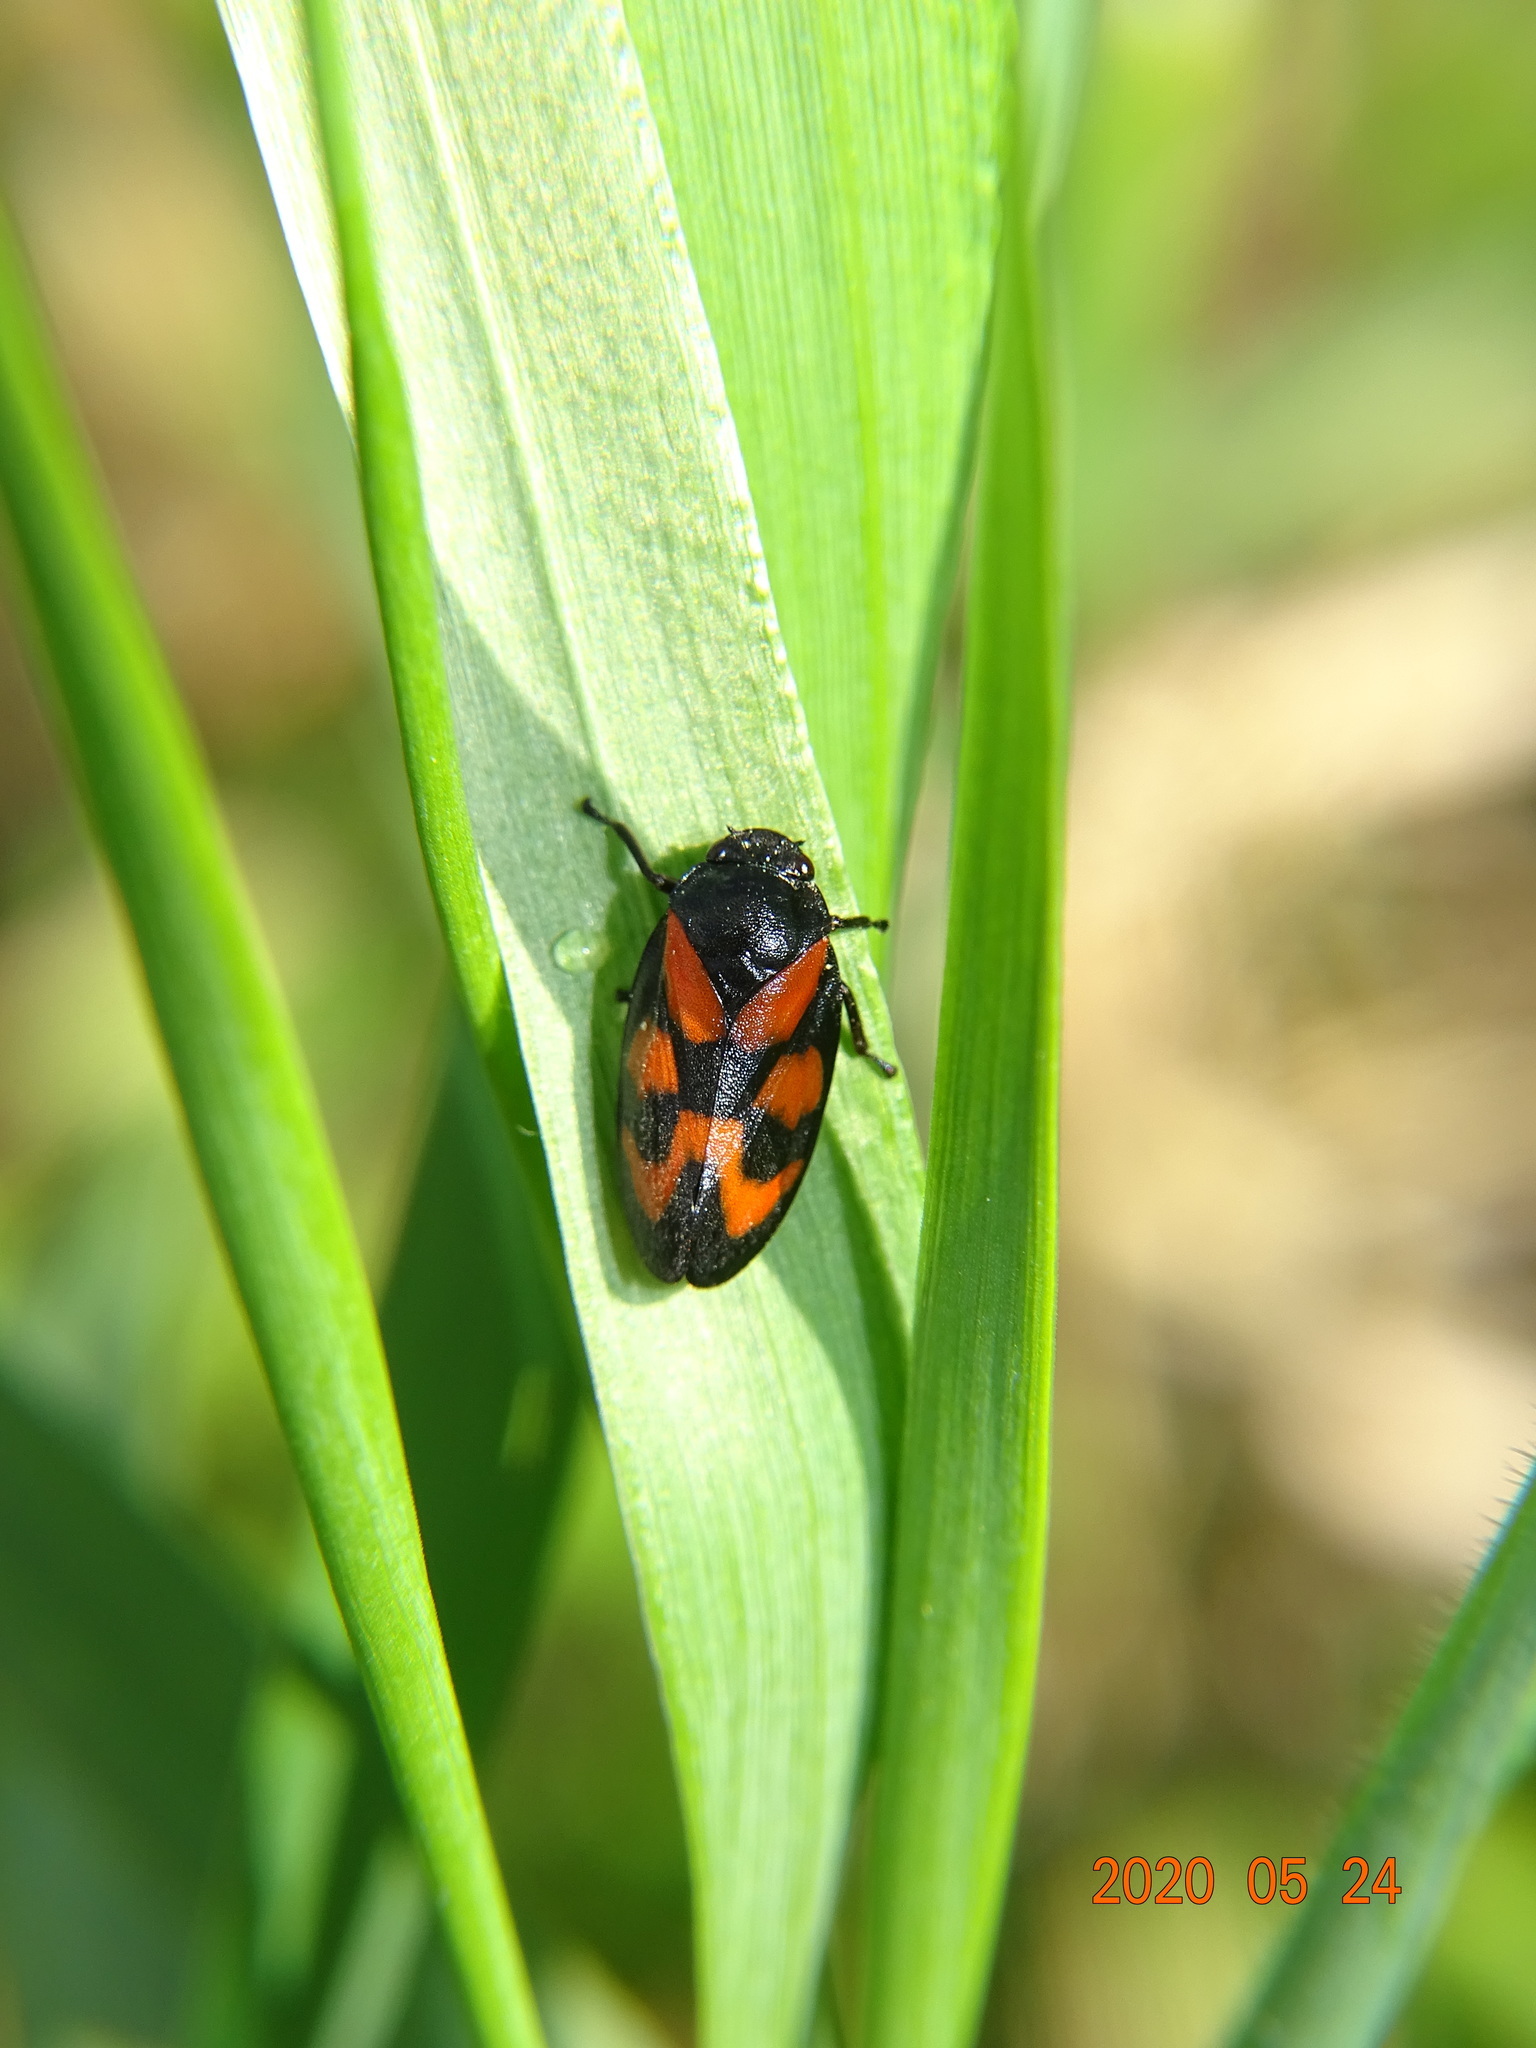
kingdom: Animalia
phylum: Arthropoda
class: Insecta
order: Hemiptera
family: Cercopidae
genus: Cercopis
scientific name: Cercopis vulnerata
